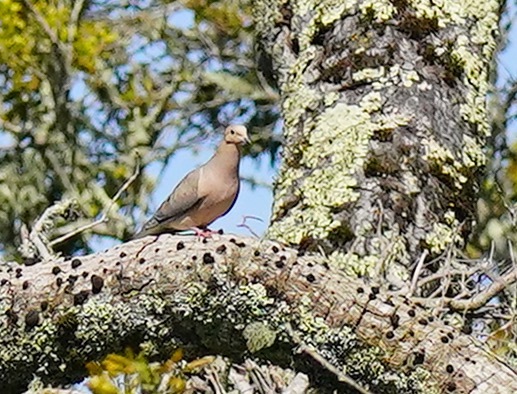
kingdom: Animalia
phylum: Chordata
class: Aves
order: Columbiformes
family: Columbidae
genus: Zenaida
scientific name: Zenaida macroura
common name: Mourning dove
